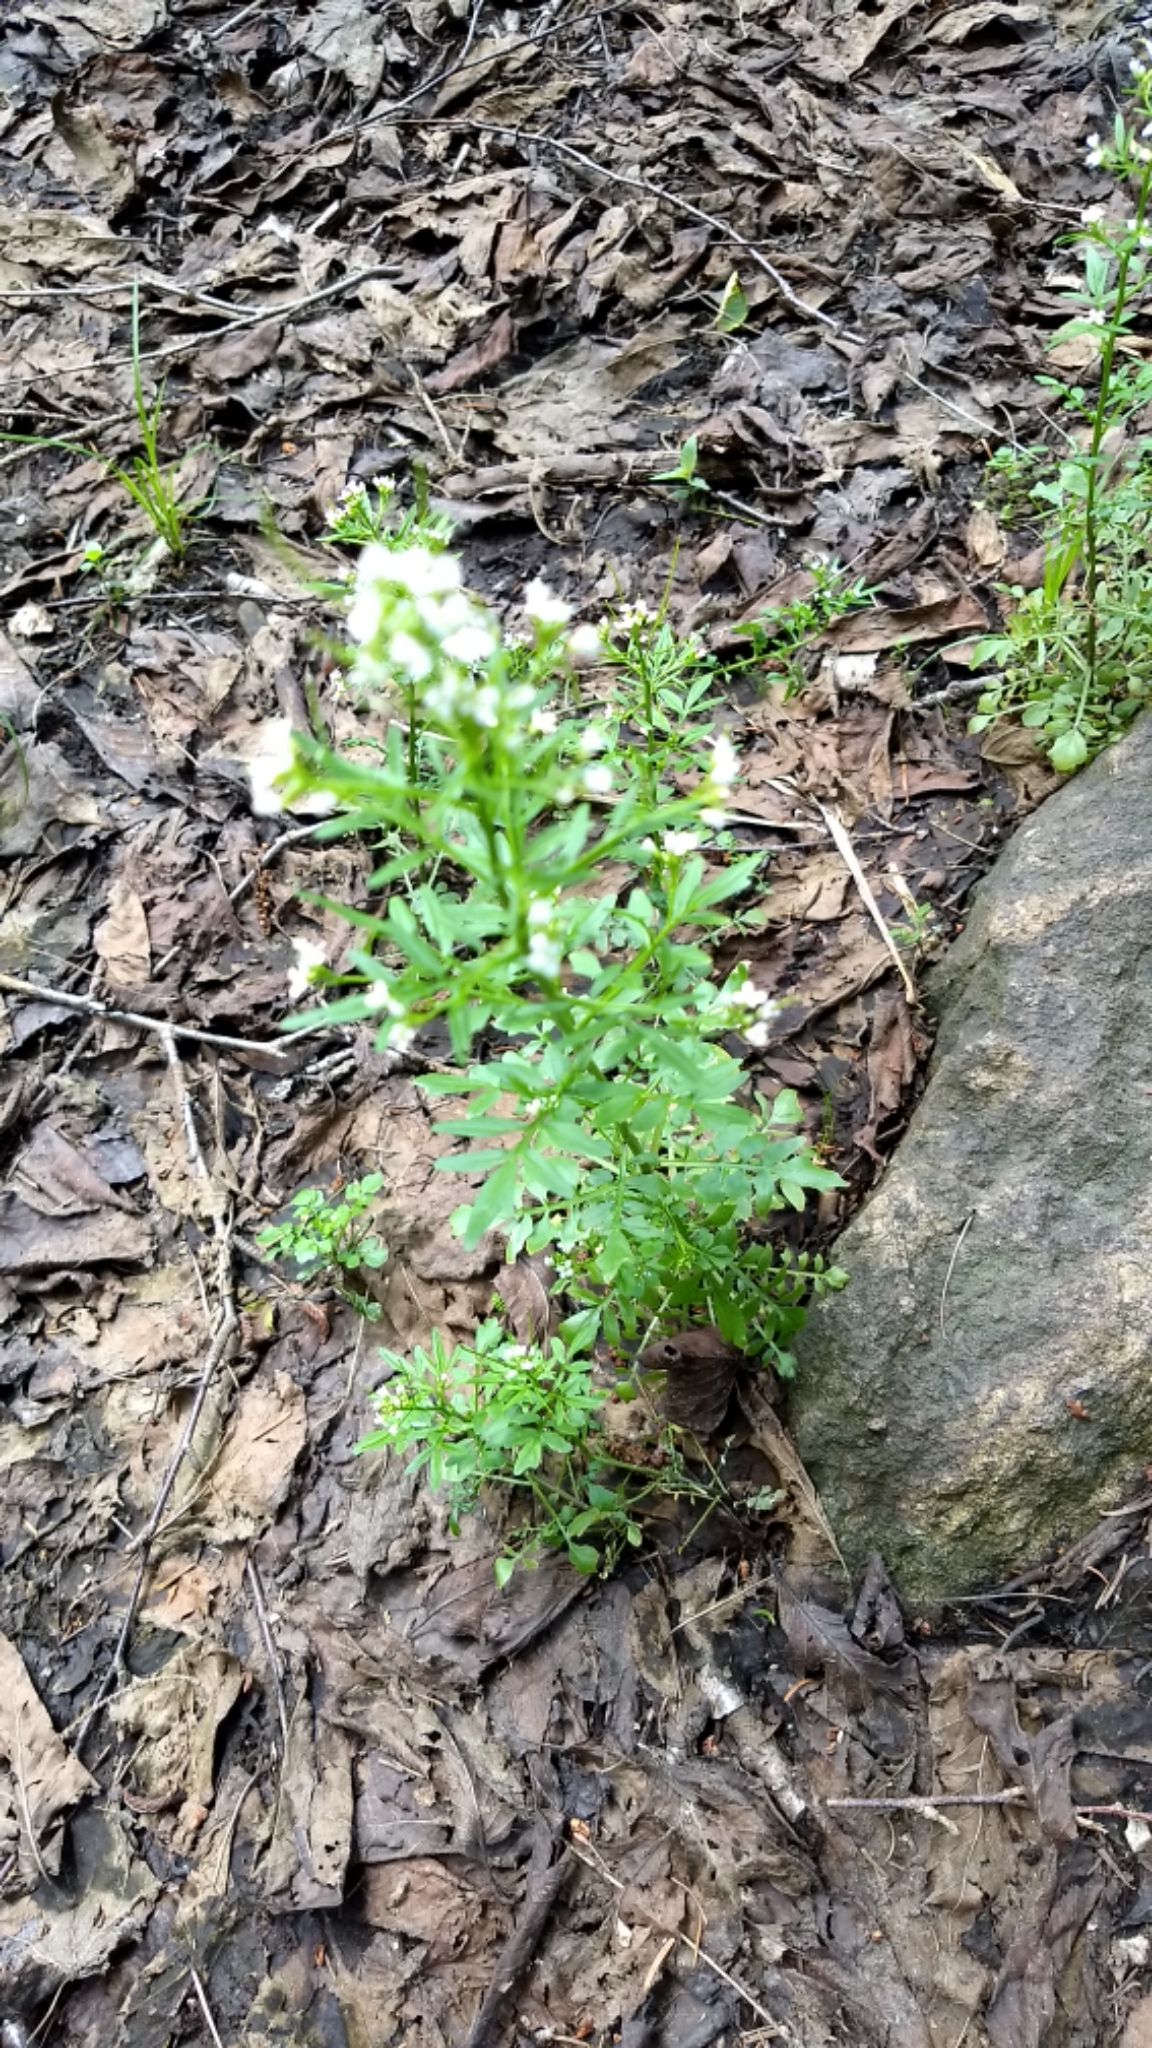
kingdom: Plantae
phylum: Tracheophyta
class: Magnoliopsida
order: Brassicales
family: Brassicaceae
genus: Cardamine
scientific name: Cardamine pensylvanica
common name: Pennsylvania bittercress
